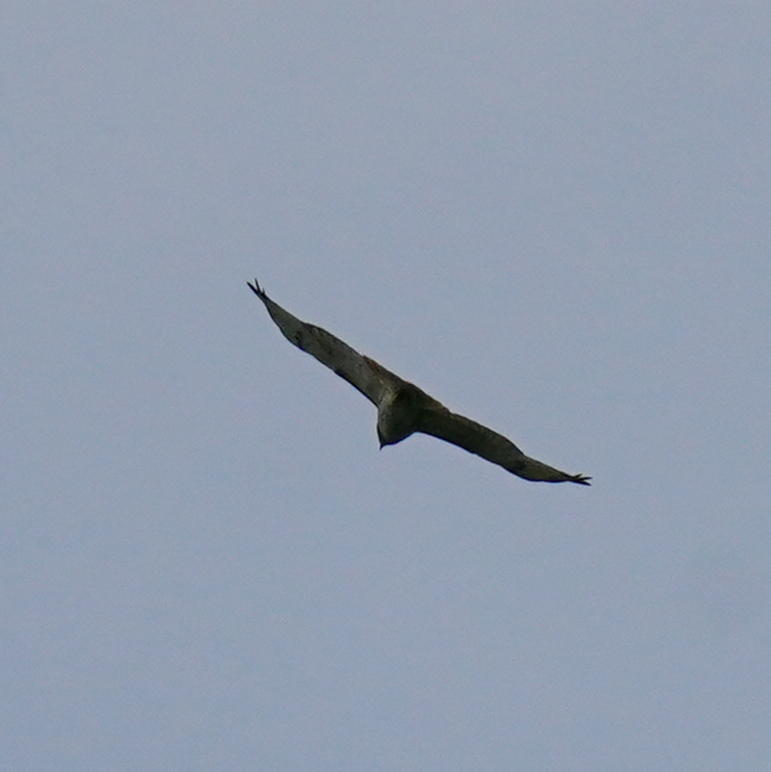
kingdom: Animalia
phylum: Chordata
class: Aves
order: Accipitriformes
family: Accipitridae
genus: Buteo
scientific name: Buteo jamaicensis
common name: Red-tailed hawk
